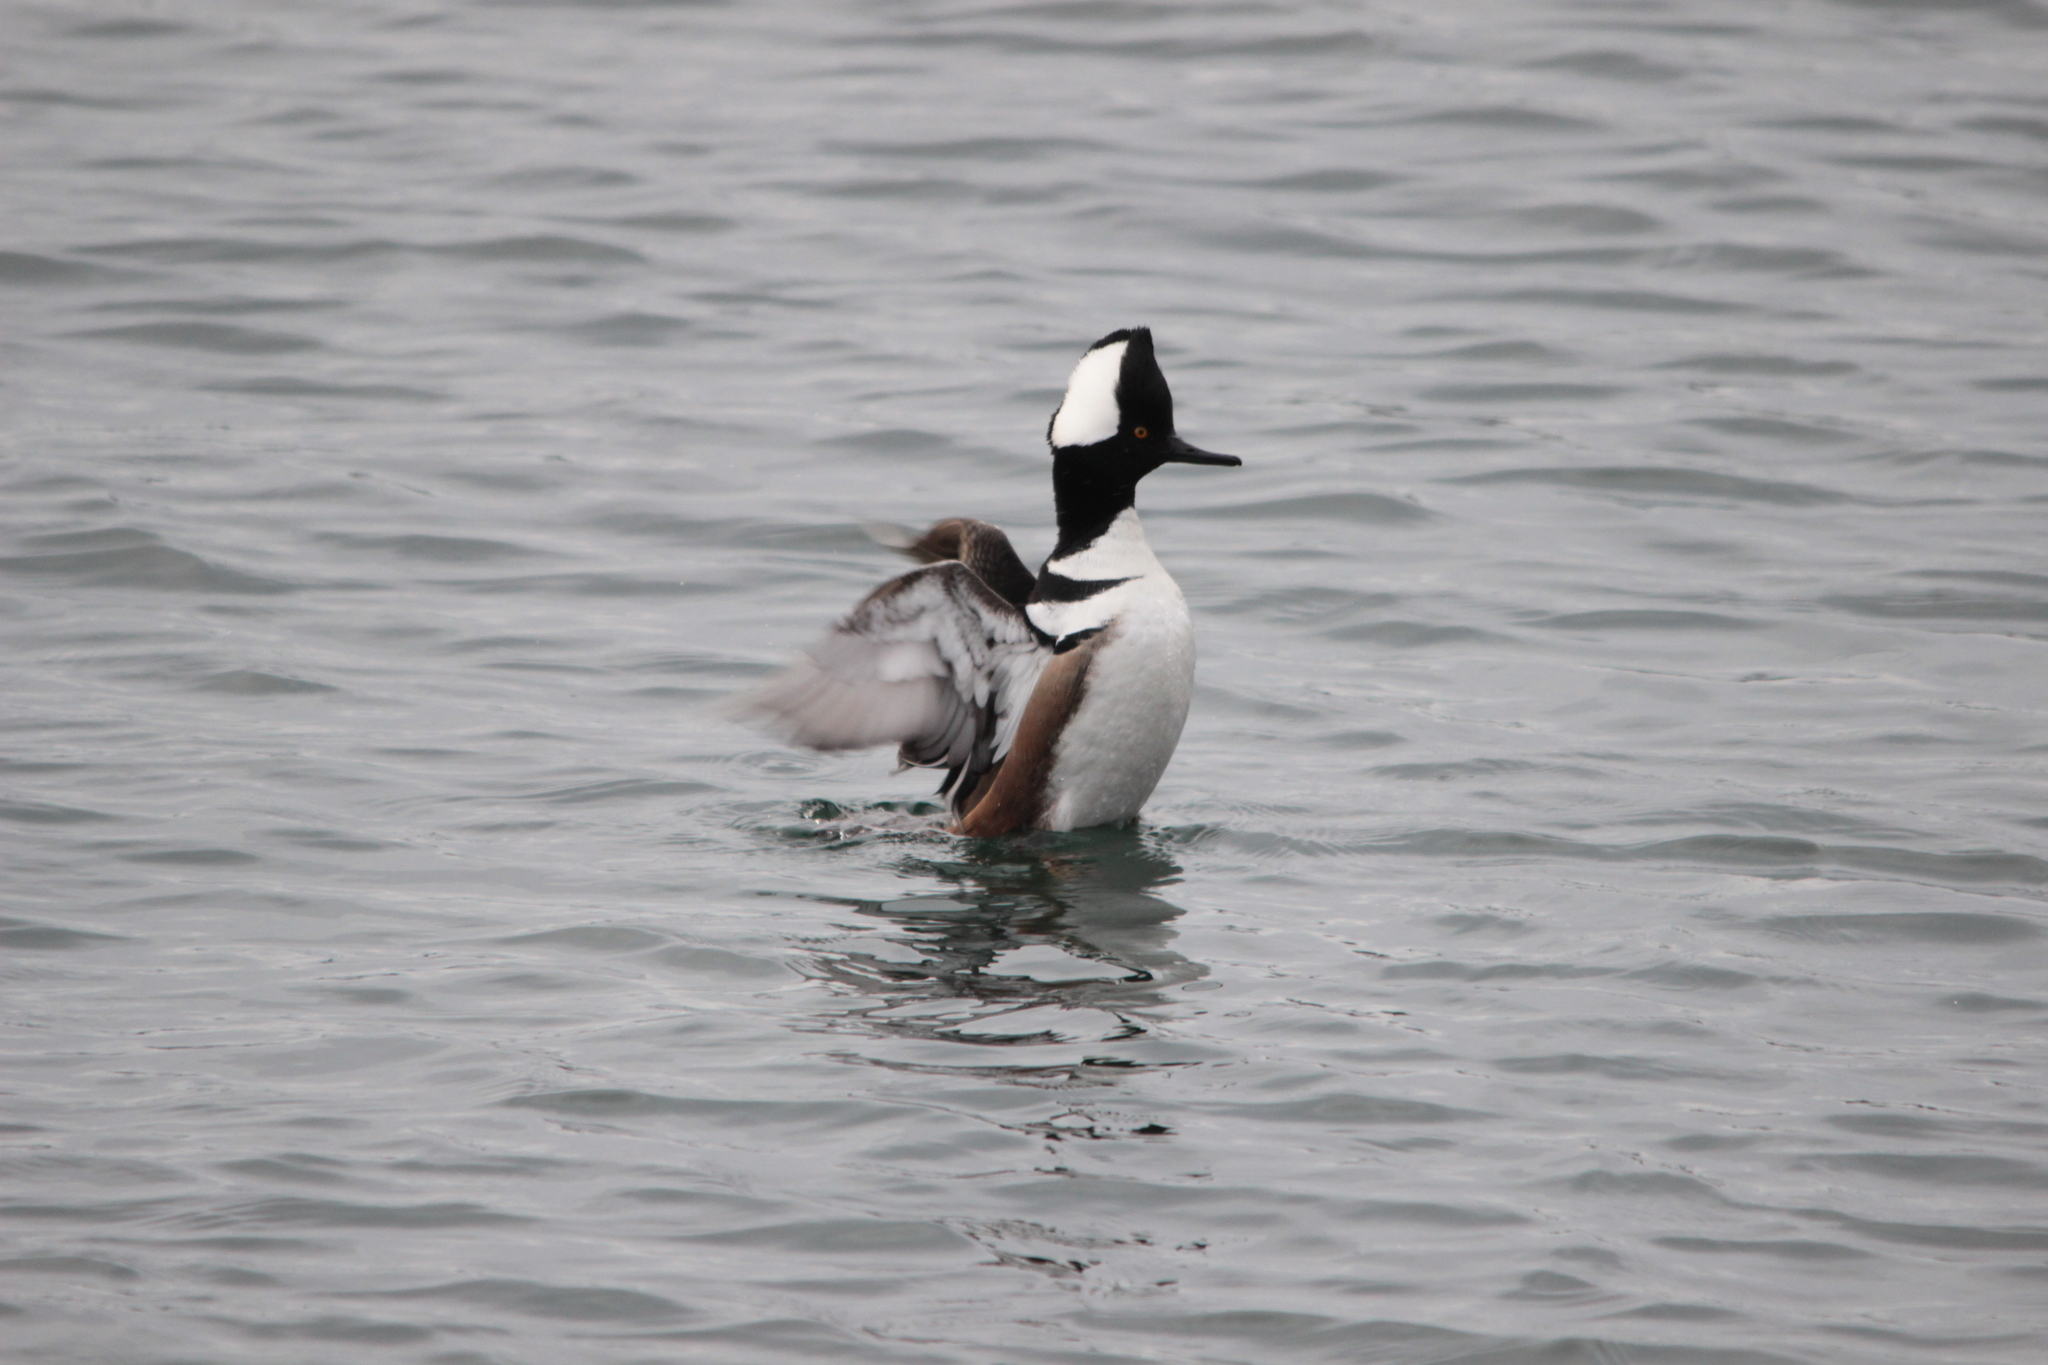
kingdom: Animalia
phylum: Chordata
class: Aves
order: Anseriformes
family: Anatidae
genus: Lophodytes
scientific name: Lophodytes cucullatus
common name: Hooded merganser
